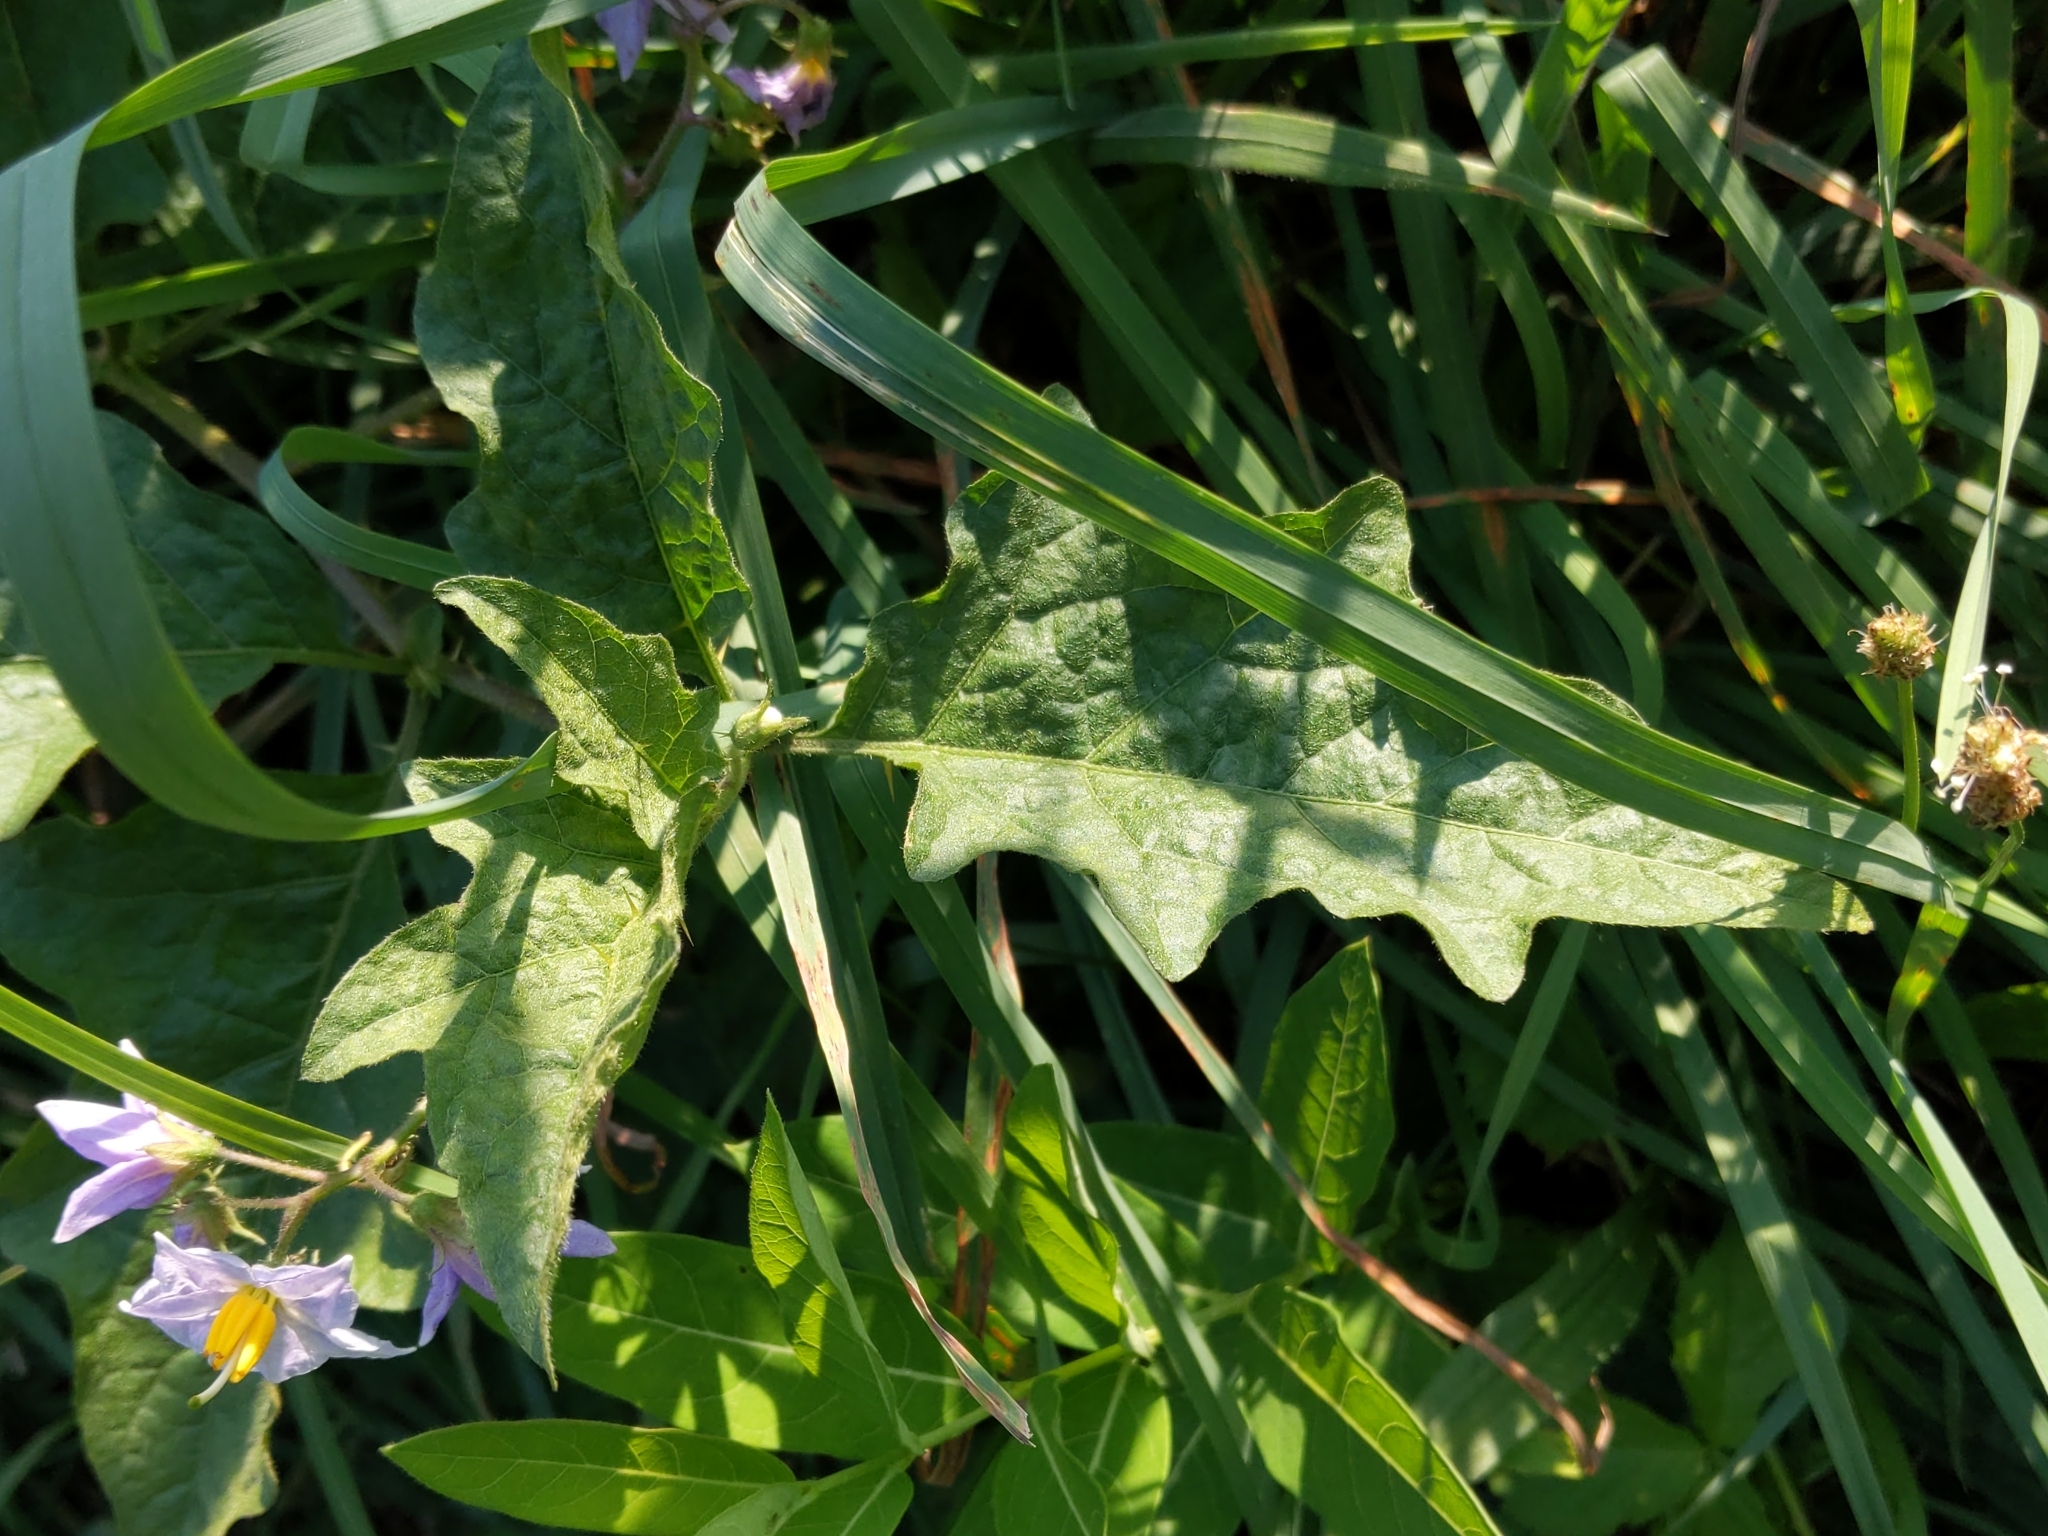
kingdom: Plantae
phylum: Tracheophyta
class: Magnoliopsida
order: Solanales
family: Solanaceae
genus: Solanum
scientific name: Solanum carolinense
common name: Horse-nettle
